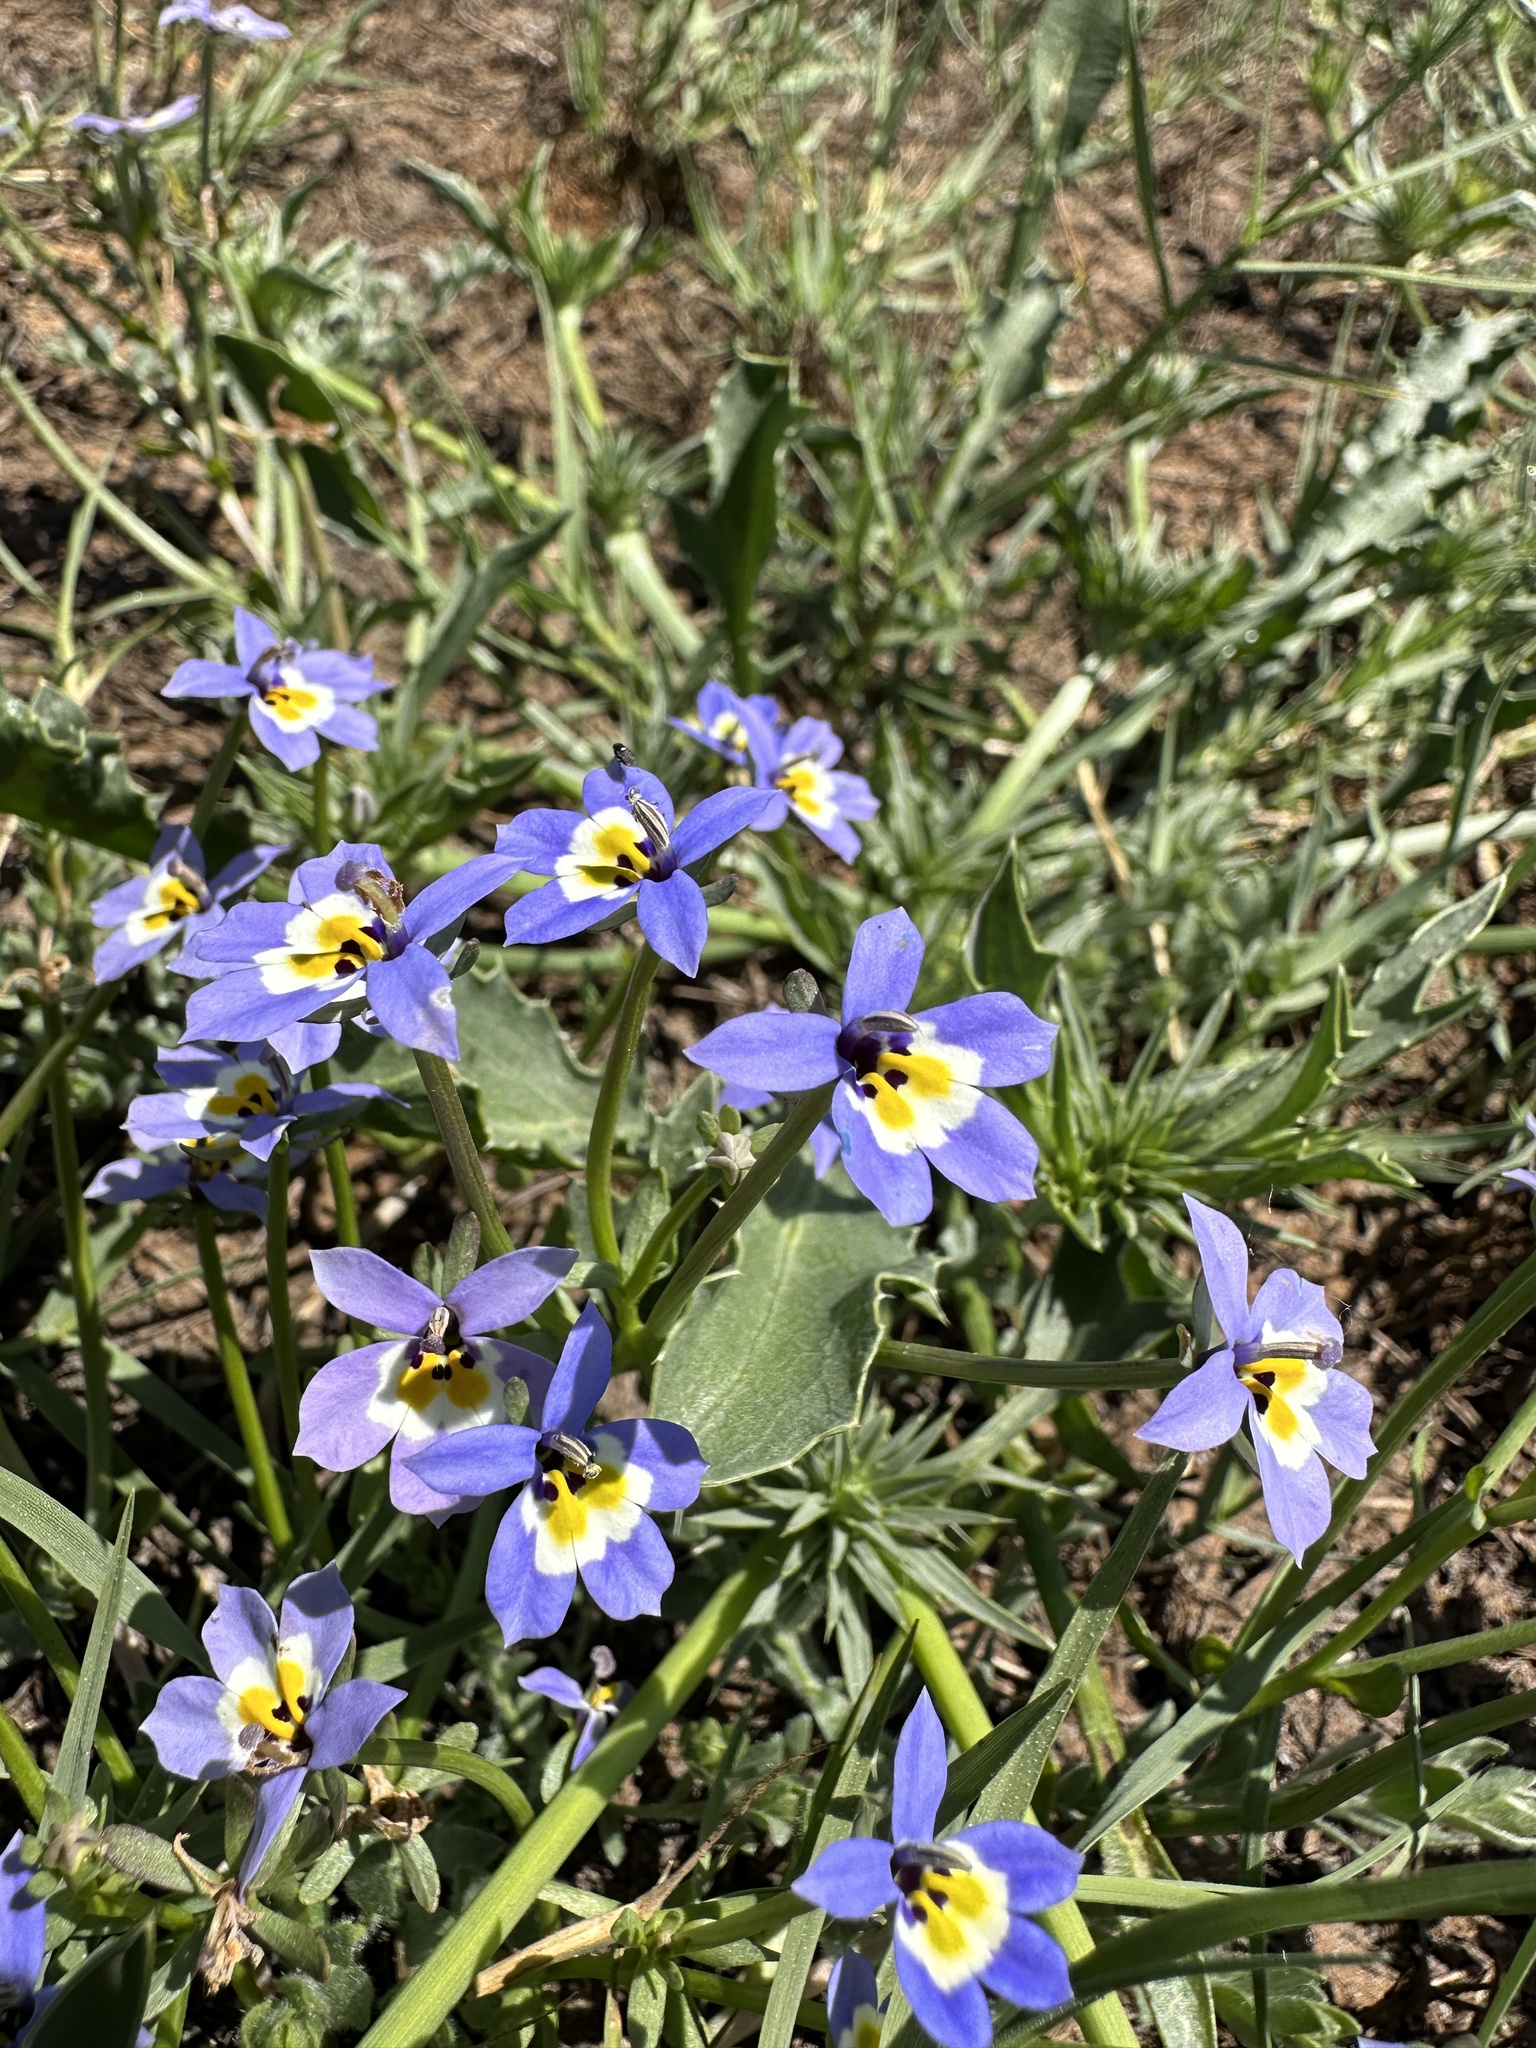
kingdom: Plantae
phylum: Tracheophyta
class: Magnoliopsida
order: Asterales
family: Campanulaceae
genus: Downingia
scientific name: Downingia pulchella
